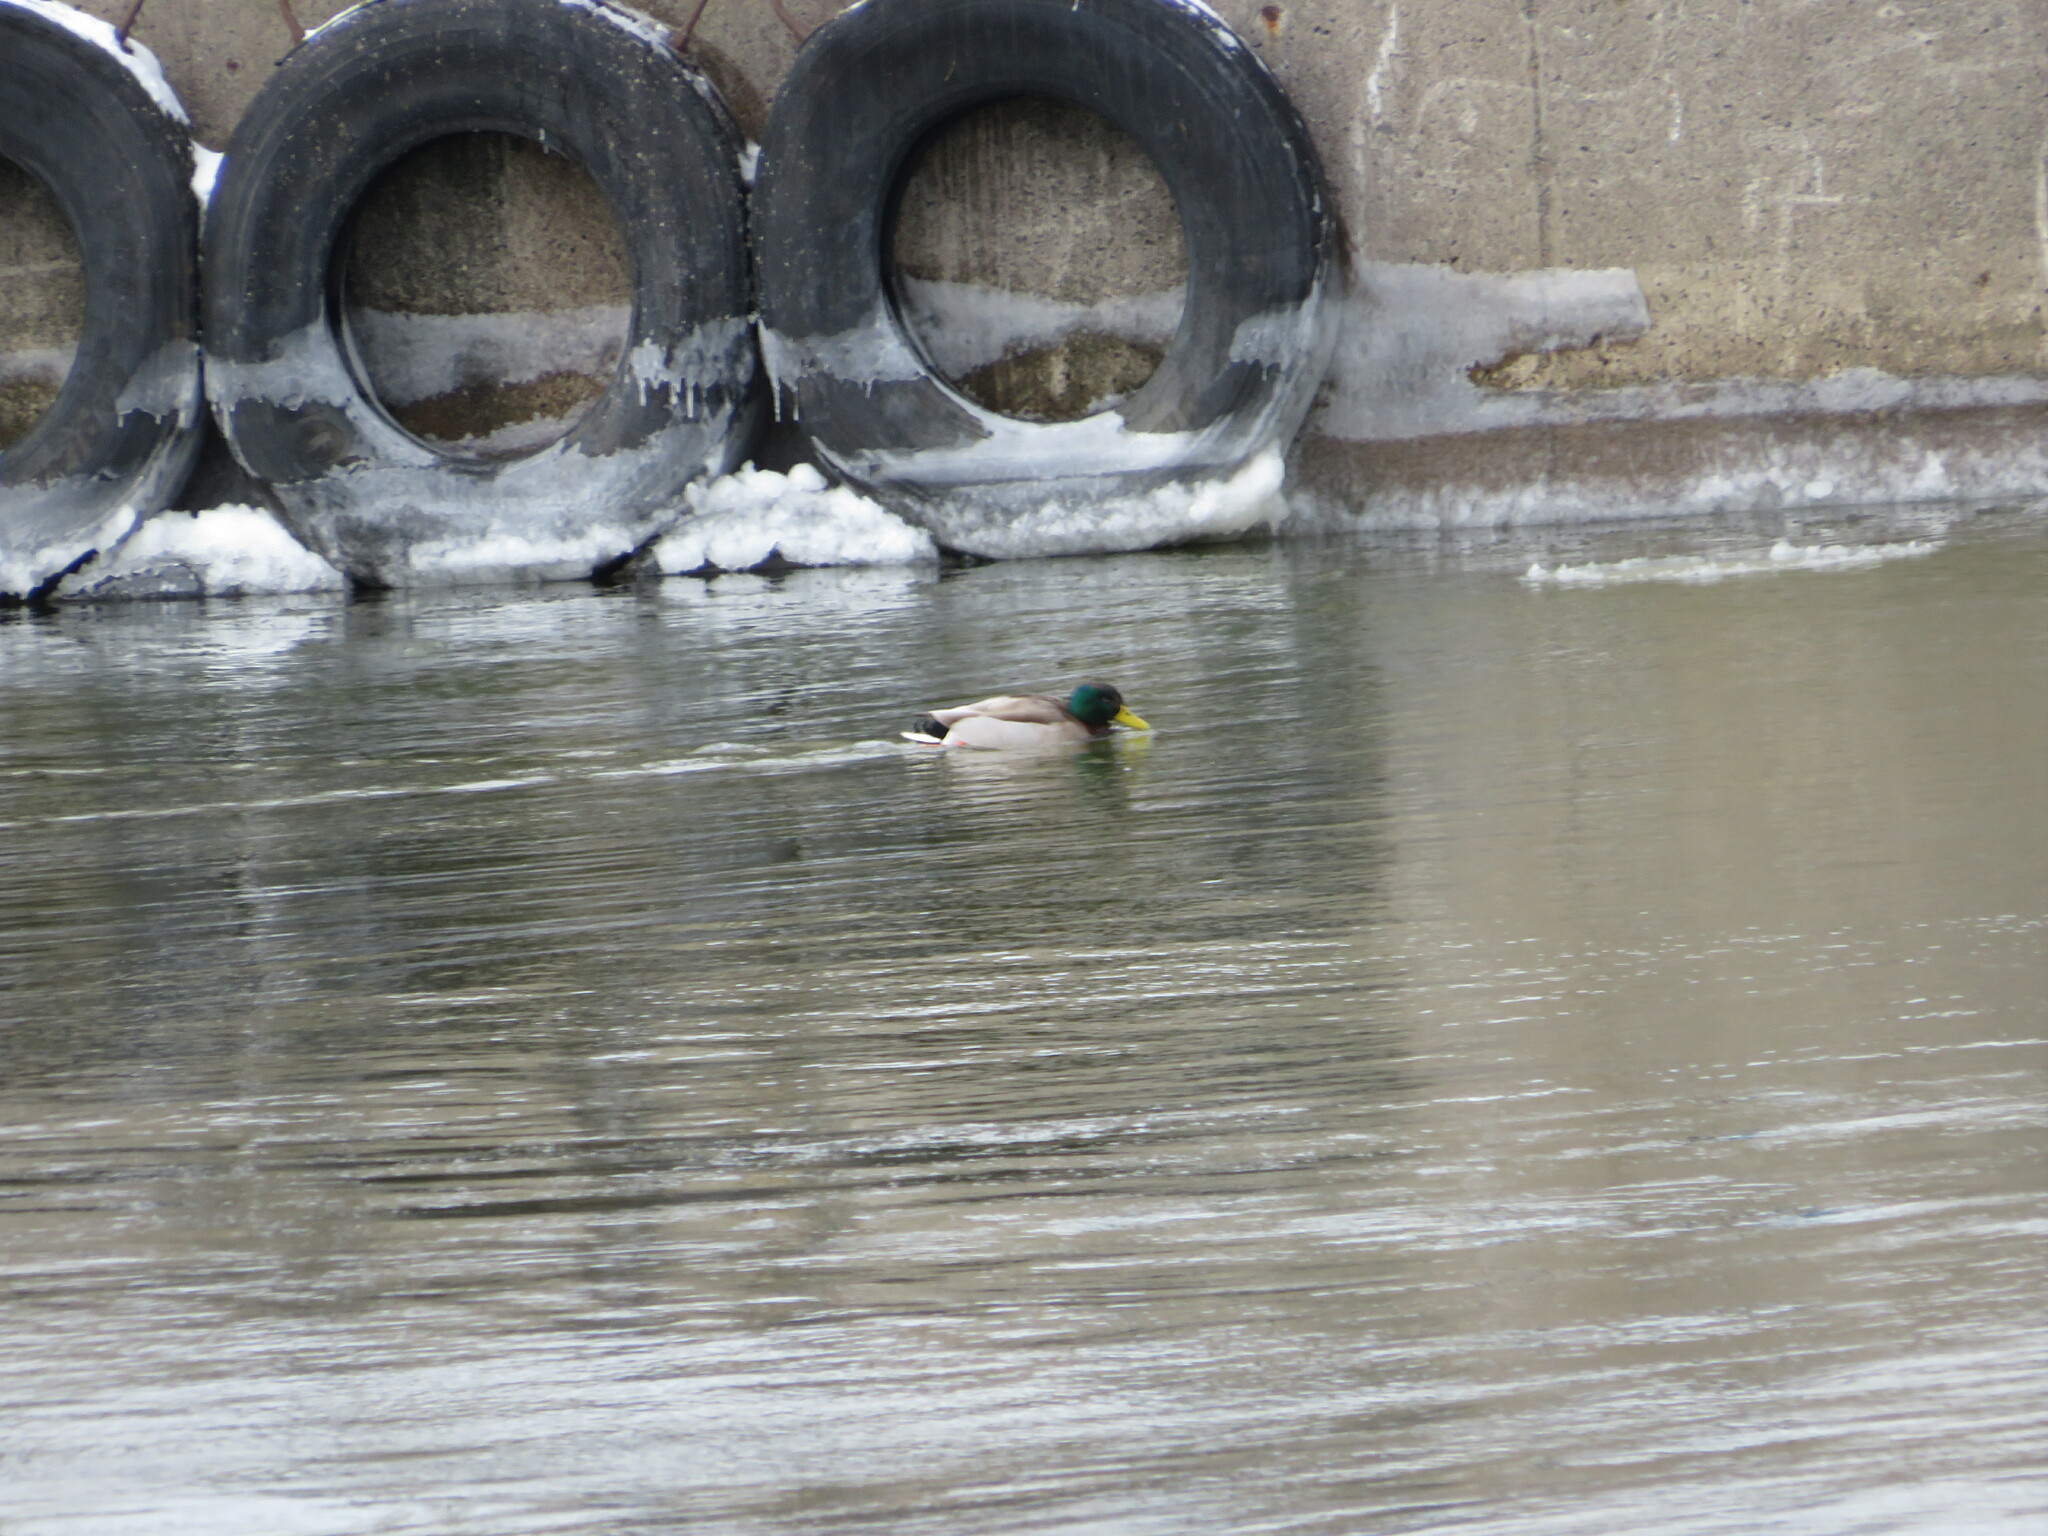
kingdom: Animalia
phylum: Chordata
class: Aves
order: Anseriformes
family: Anatidae
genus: Anas
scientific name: Anas platyrhynchos
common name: Mallard
